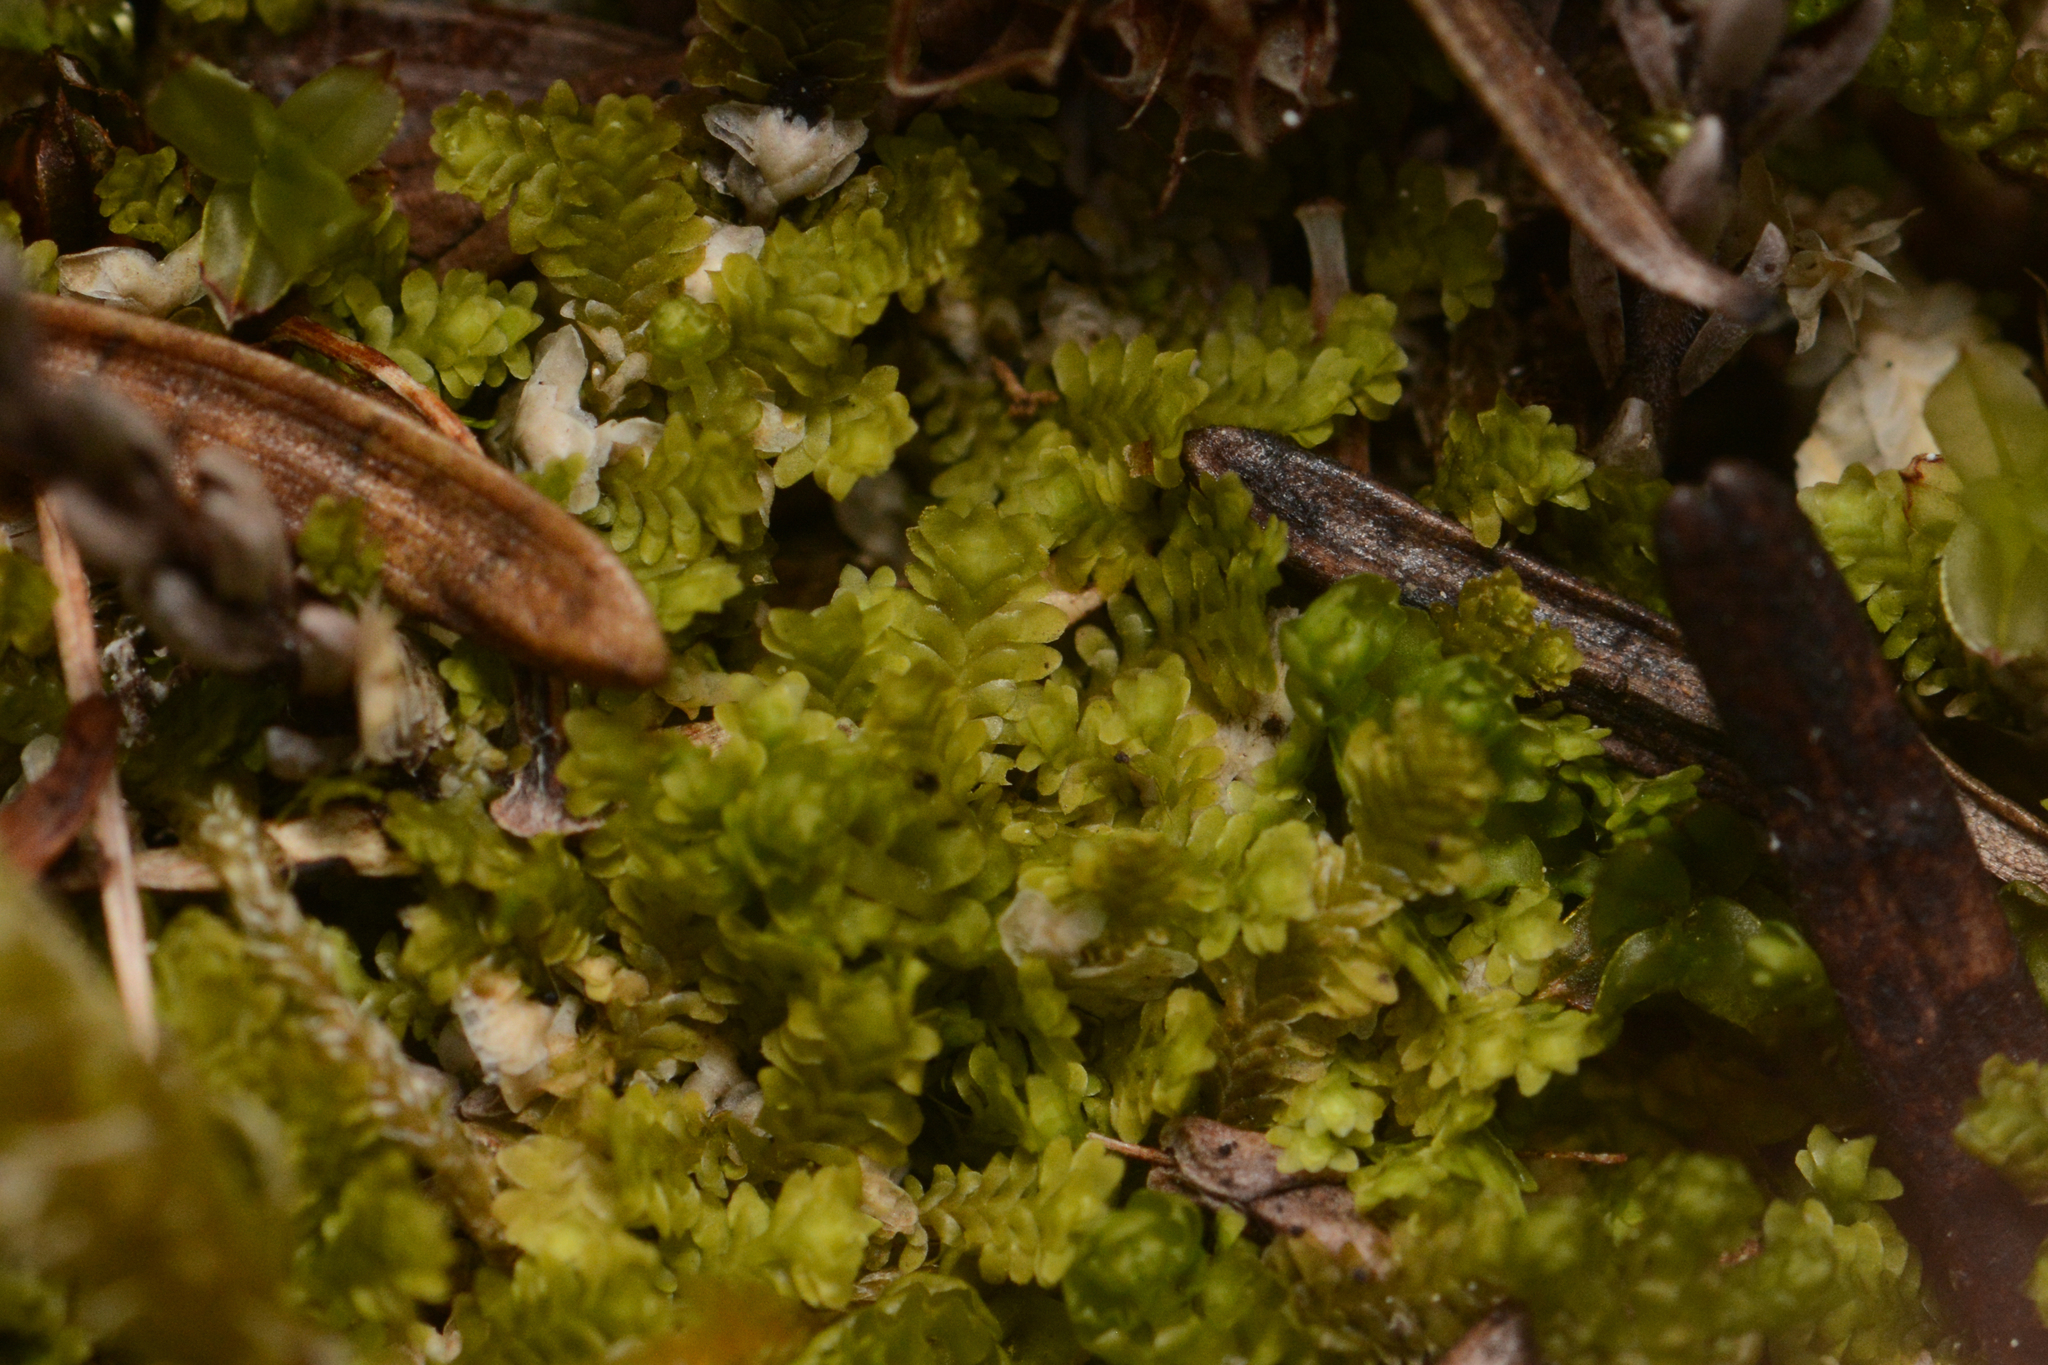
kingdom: Plantae
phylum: Marchantiophyta
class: Jungermanniopsida
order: Jungermanniales
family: Scapaniaceae
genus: Diplophyllum
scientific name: Diplophyllum taxifolium
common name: Alpine earwort
